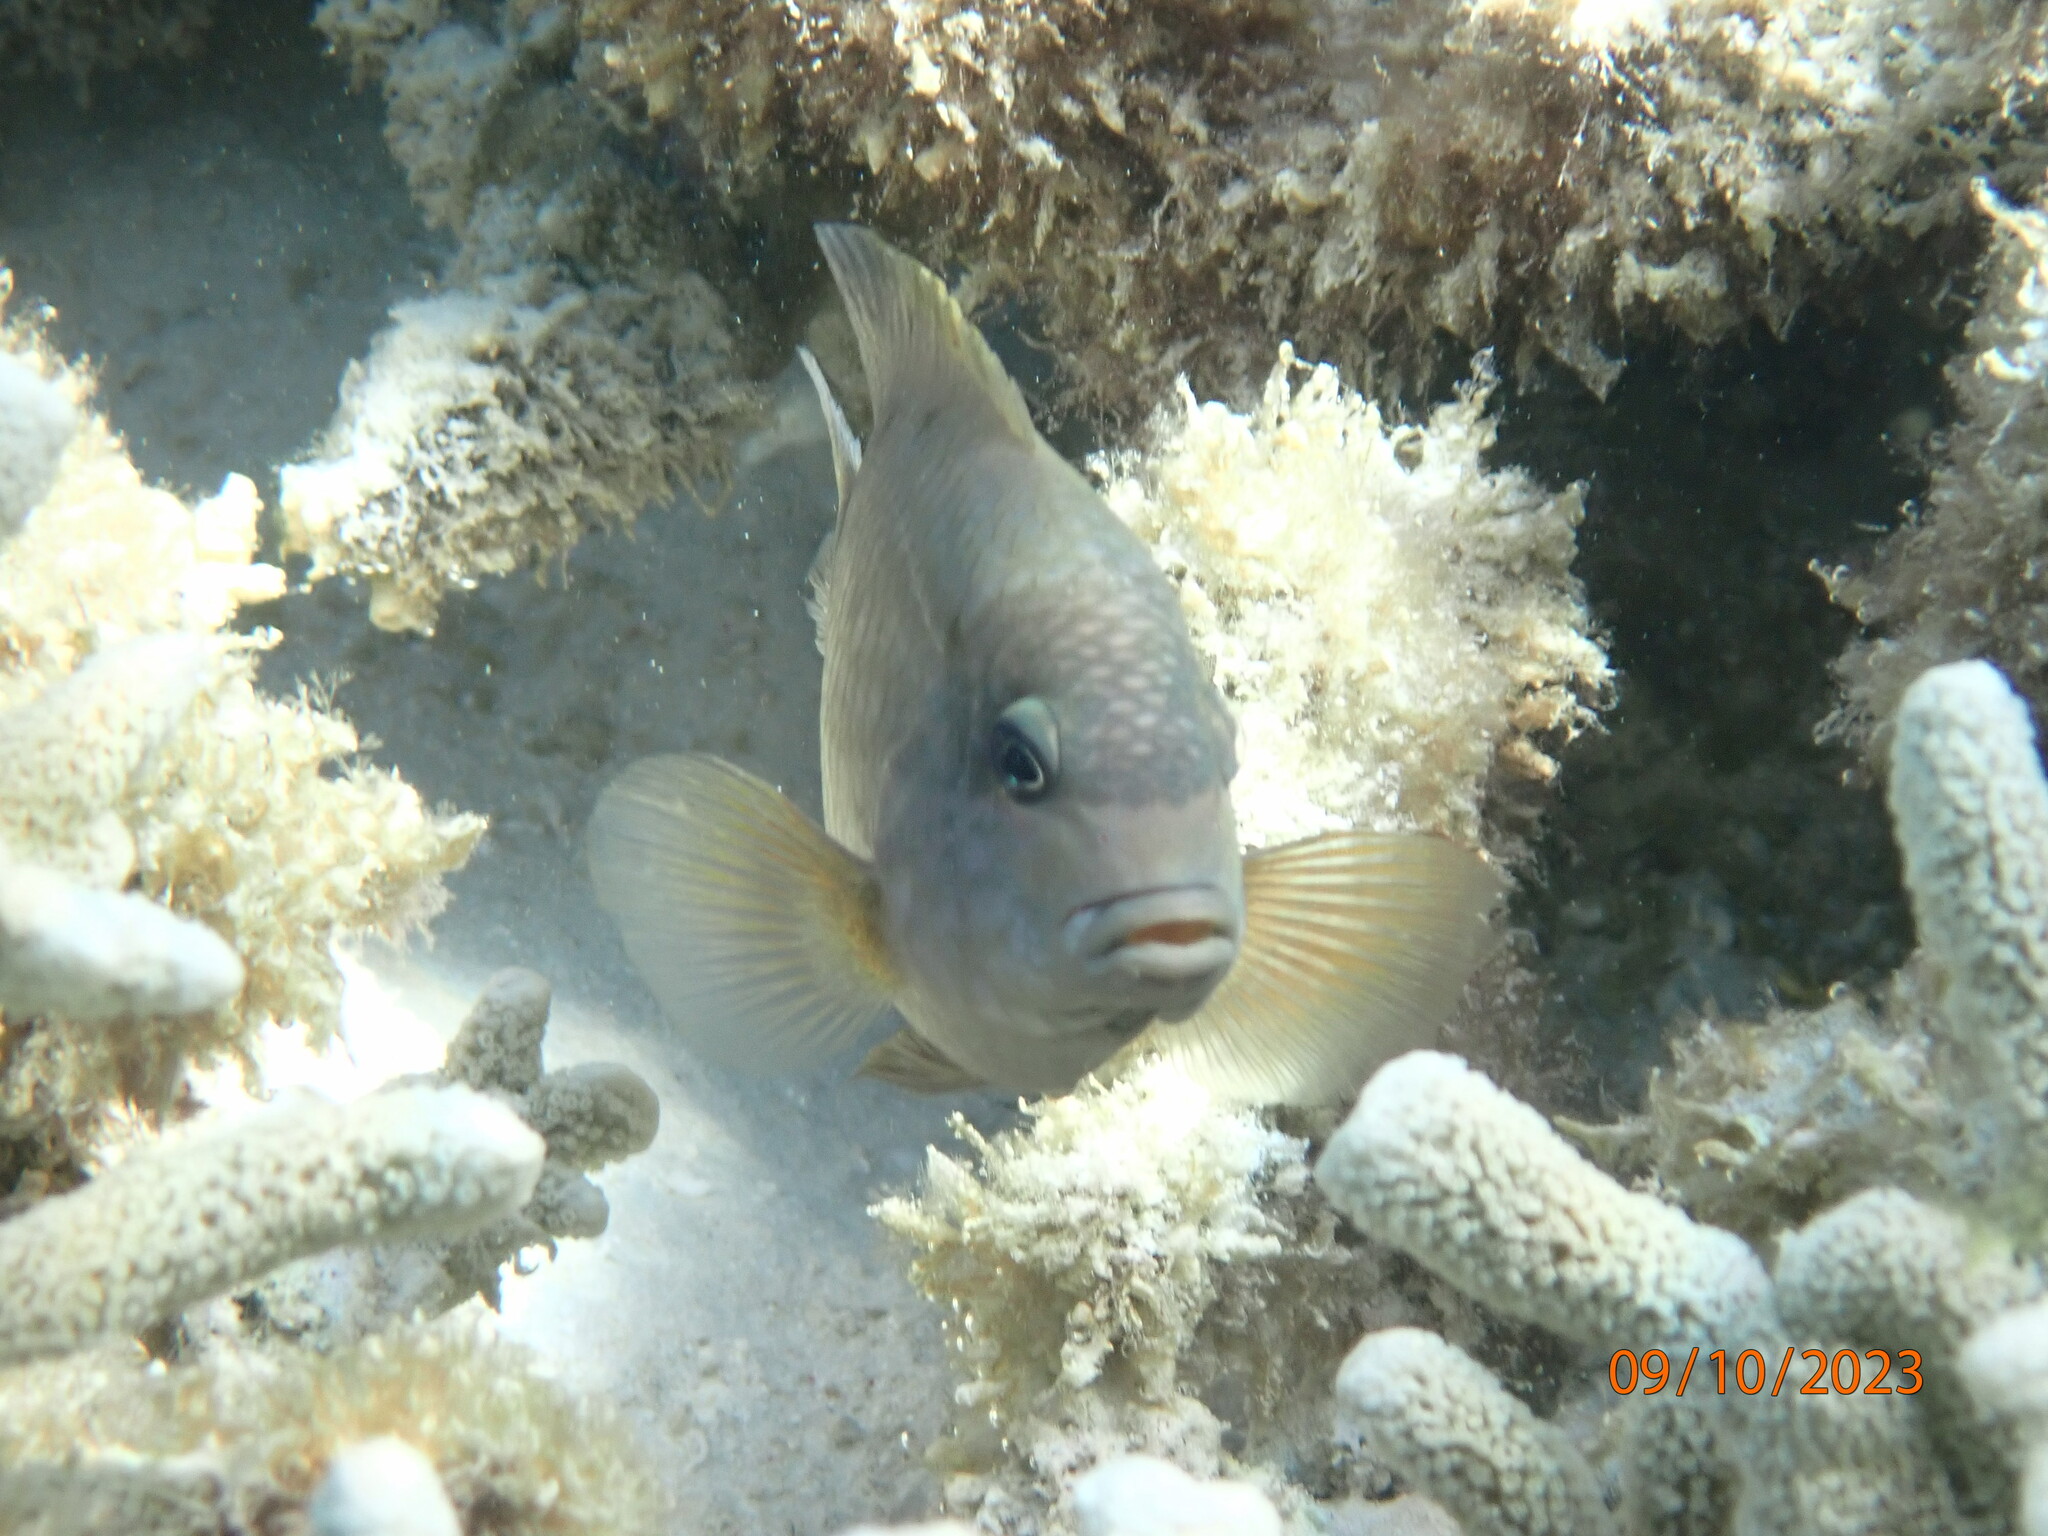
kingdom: Animalia
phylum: Chordata
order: Perciformes
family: Pomacentridae
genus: Stegastes
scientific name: Stegastes punctatus
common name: Blunt snout gregory
